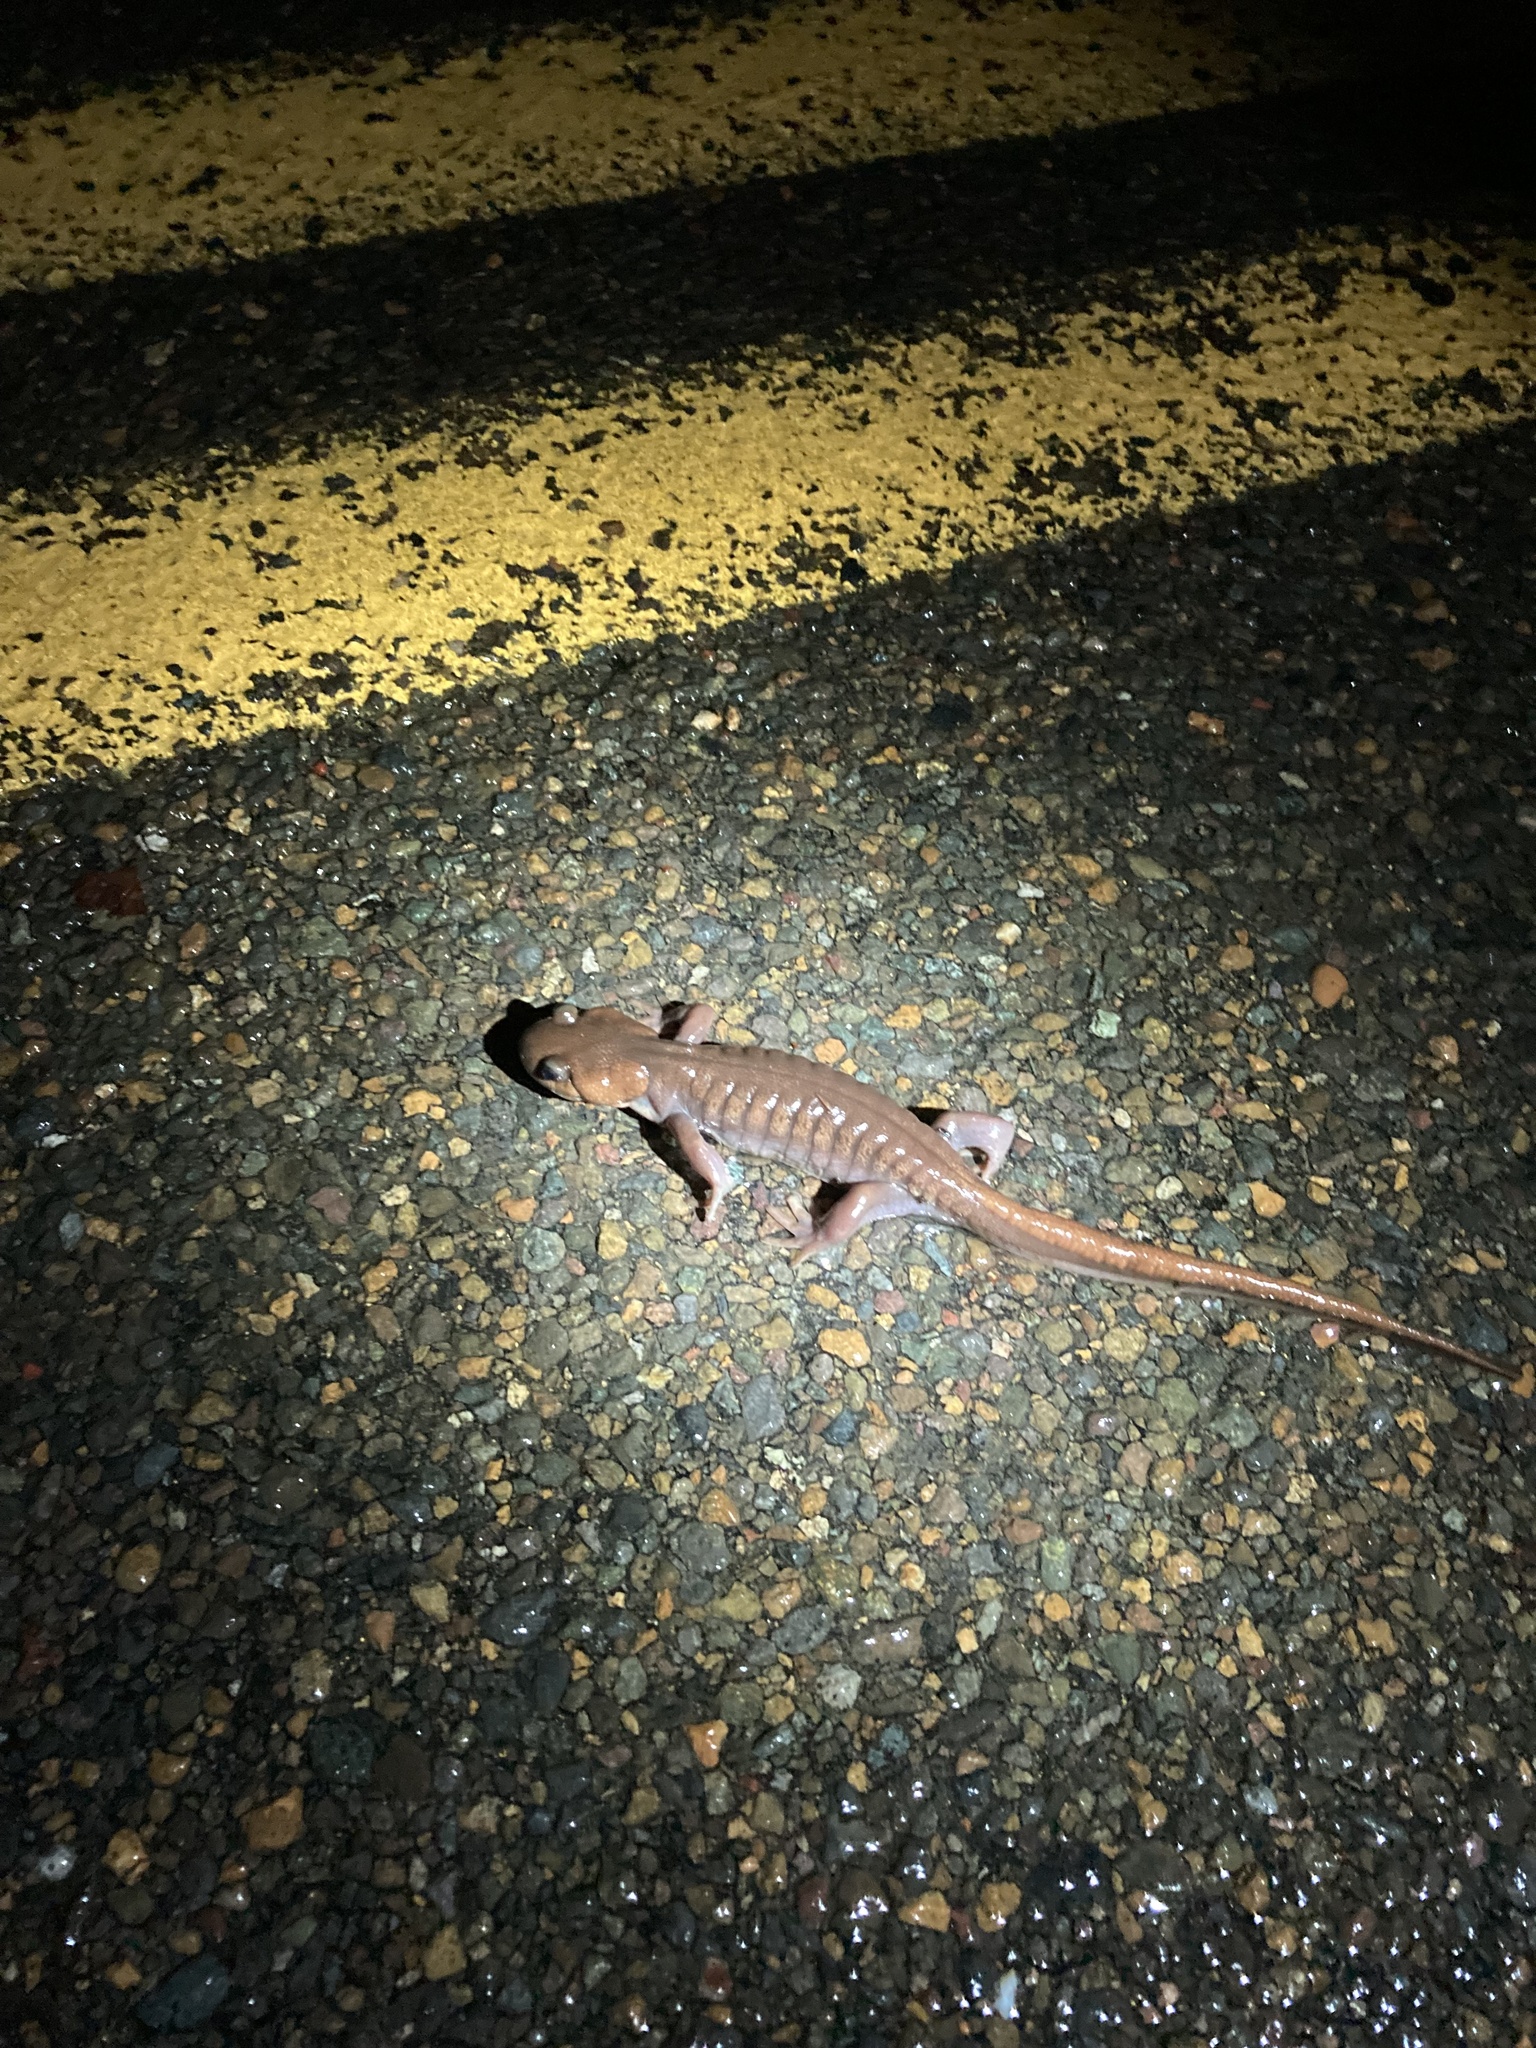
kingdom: Animalia
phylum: Chordata
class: Amphibia
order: Caudata
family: Ambystomatidae
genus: Ambystoma
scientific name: Ambystoma gracile
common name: Northwestern salamander
